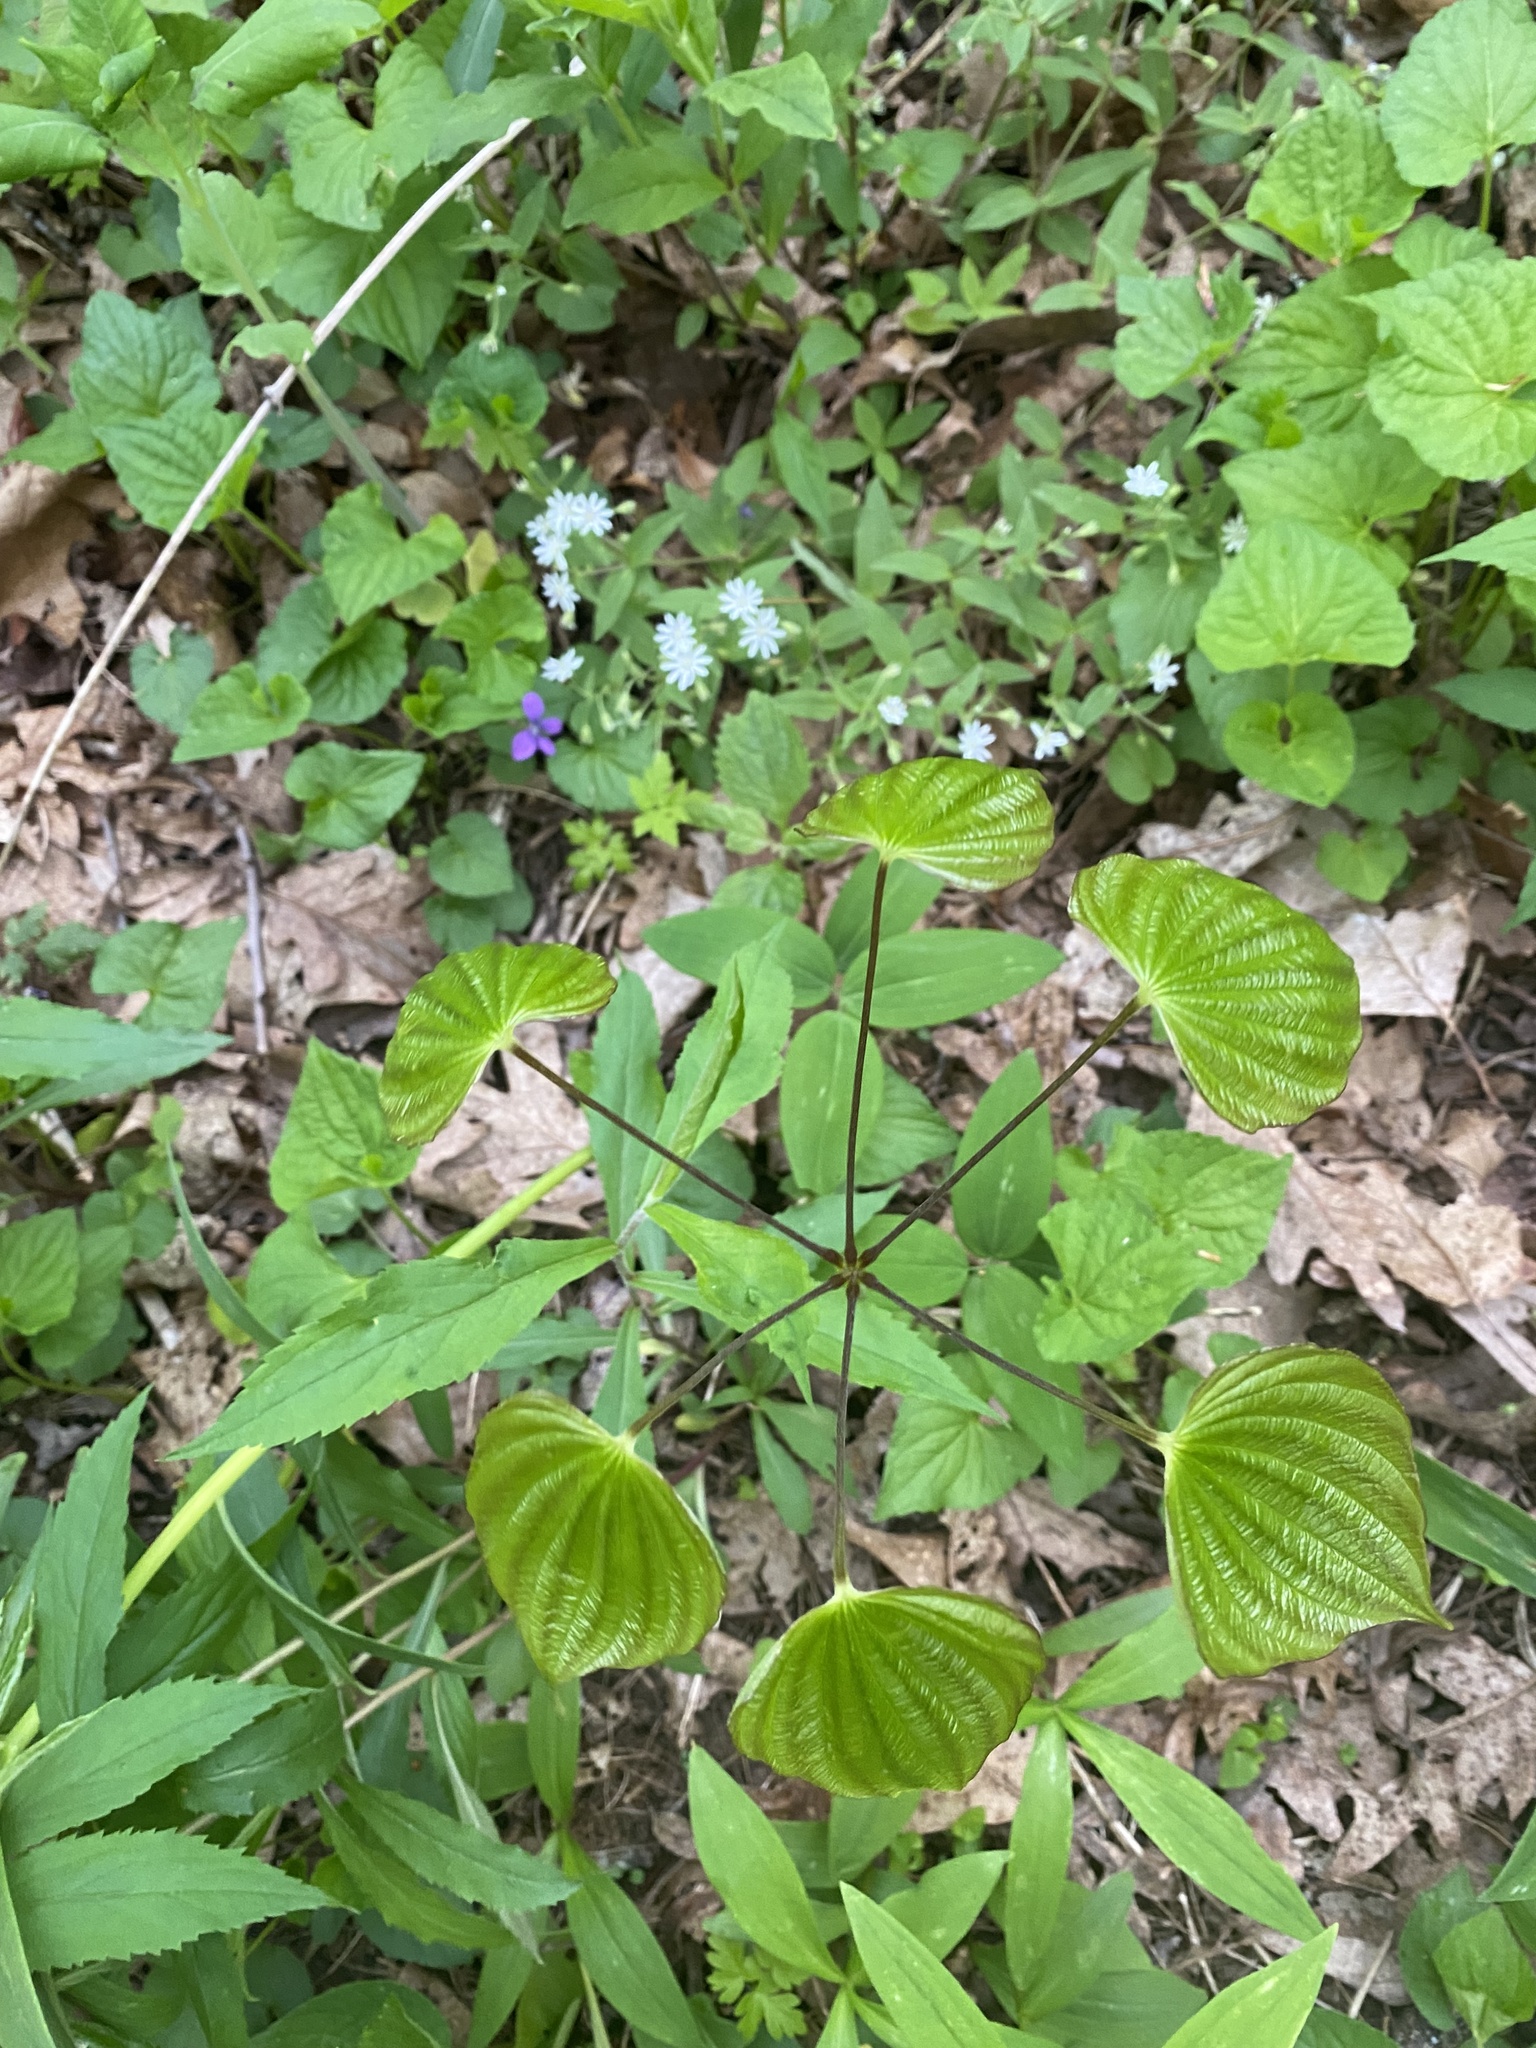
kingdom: Plantae
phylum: Tracheophyta
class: Liliopsida
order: Dioscoreales
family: Dioscoreaceae
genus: Dioscorea
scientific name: Dioscorea villosa
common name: Wild yam
